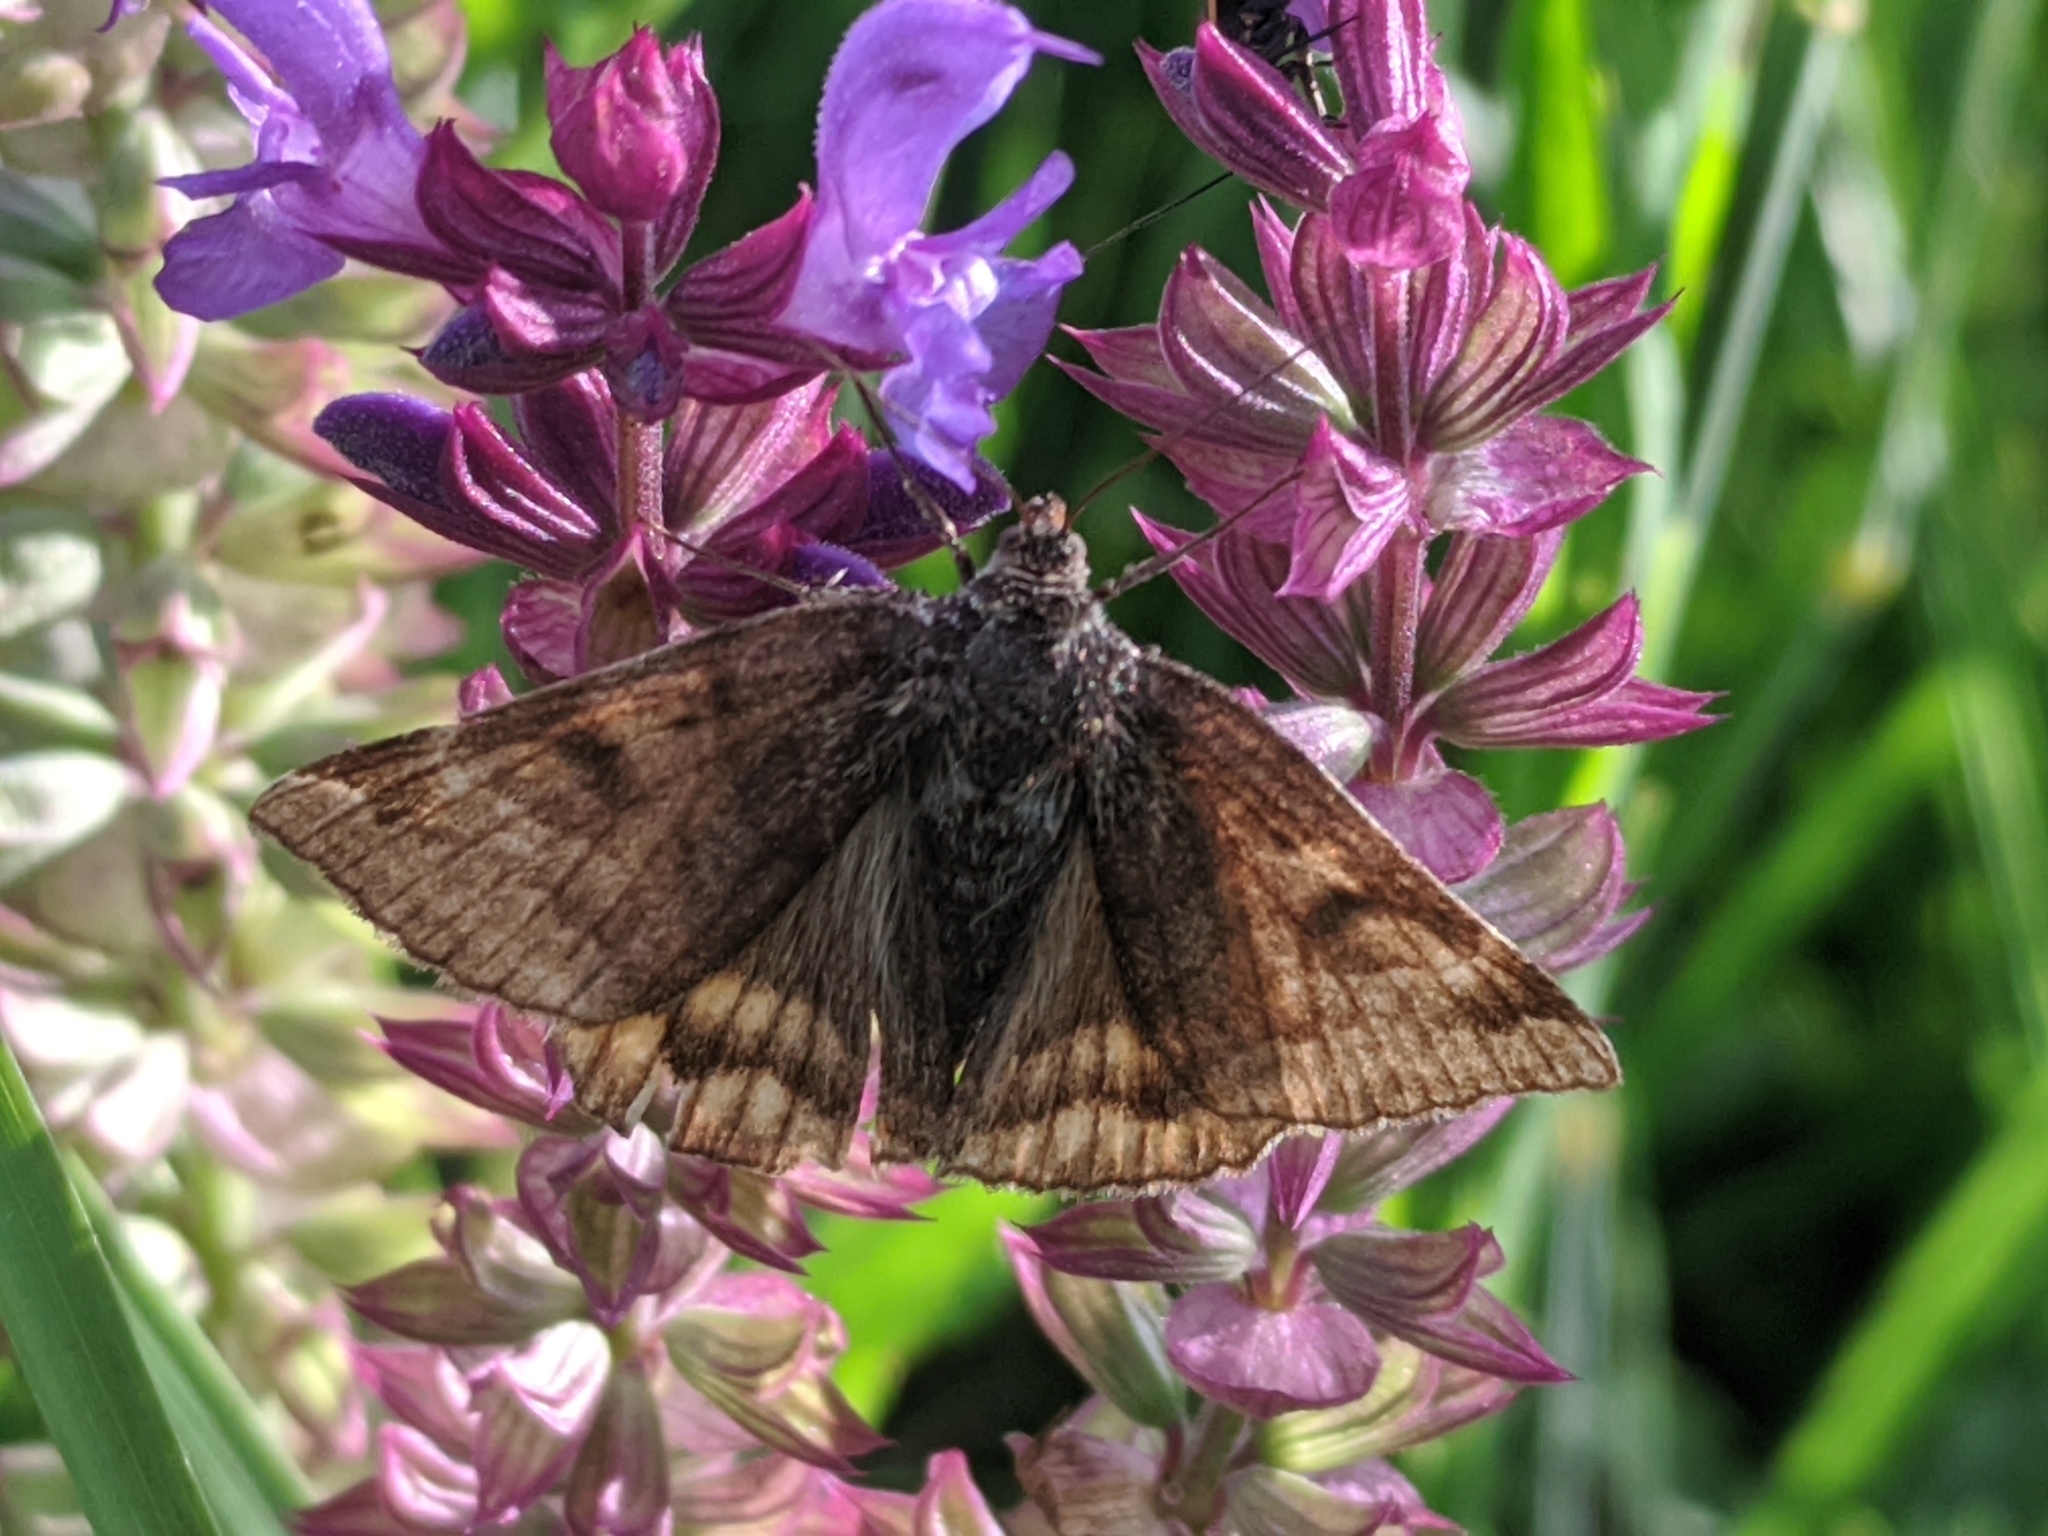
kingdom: Animalia
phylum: Arthropoda
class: Insecta
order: Lepidoptera
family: Erebidae
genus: Euclidia
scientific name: Euclidia glyphica
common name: Burnet companion
